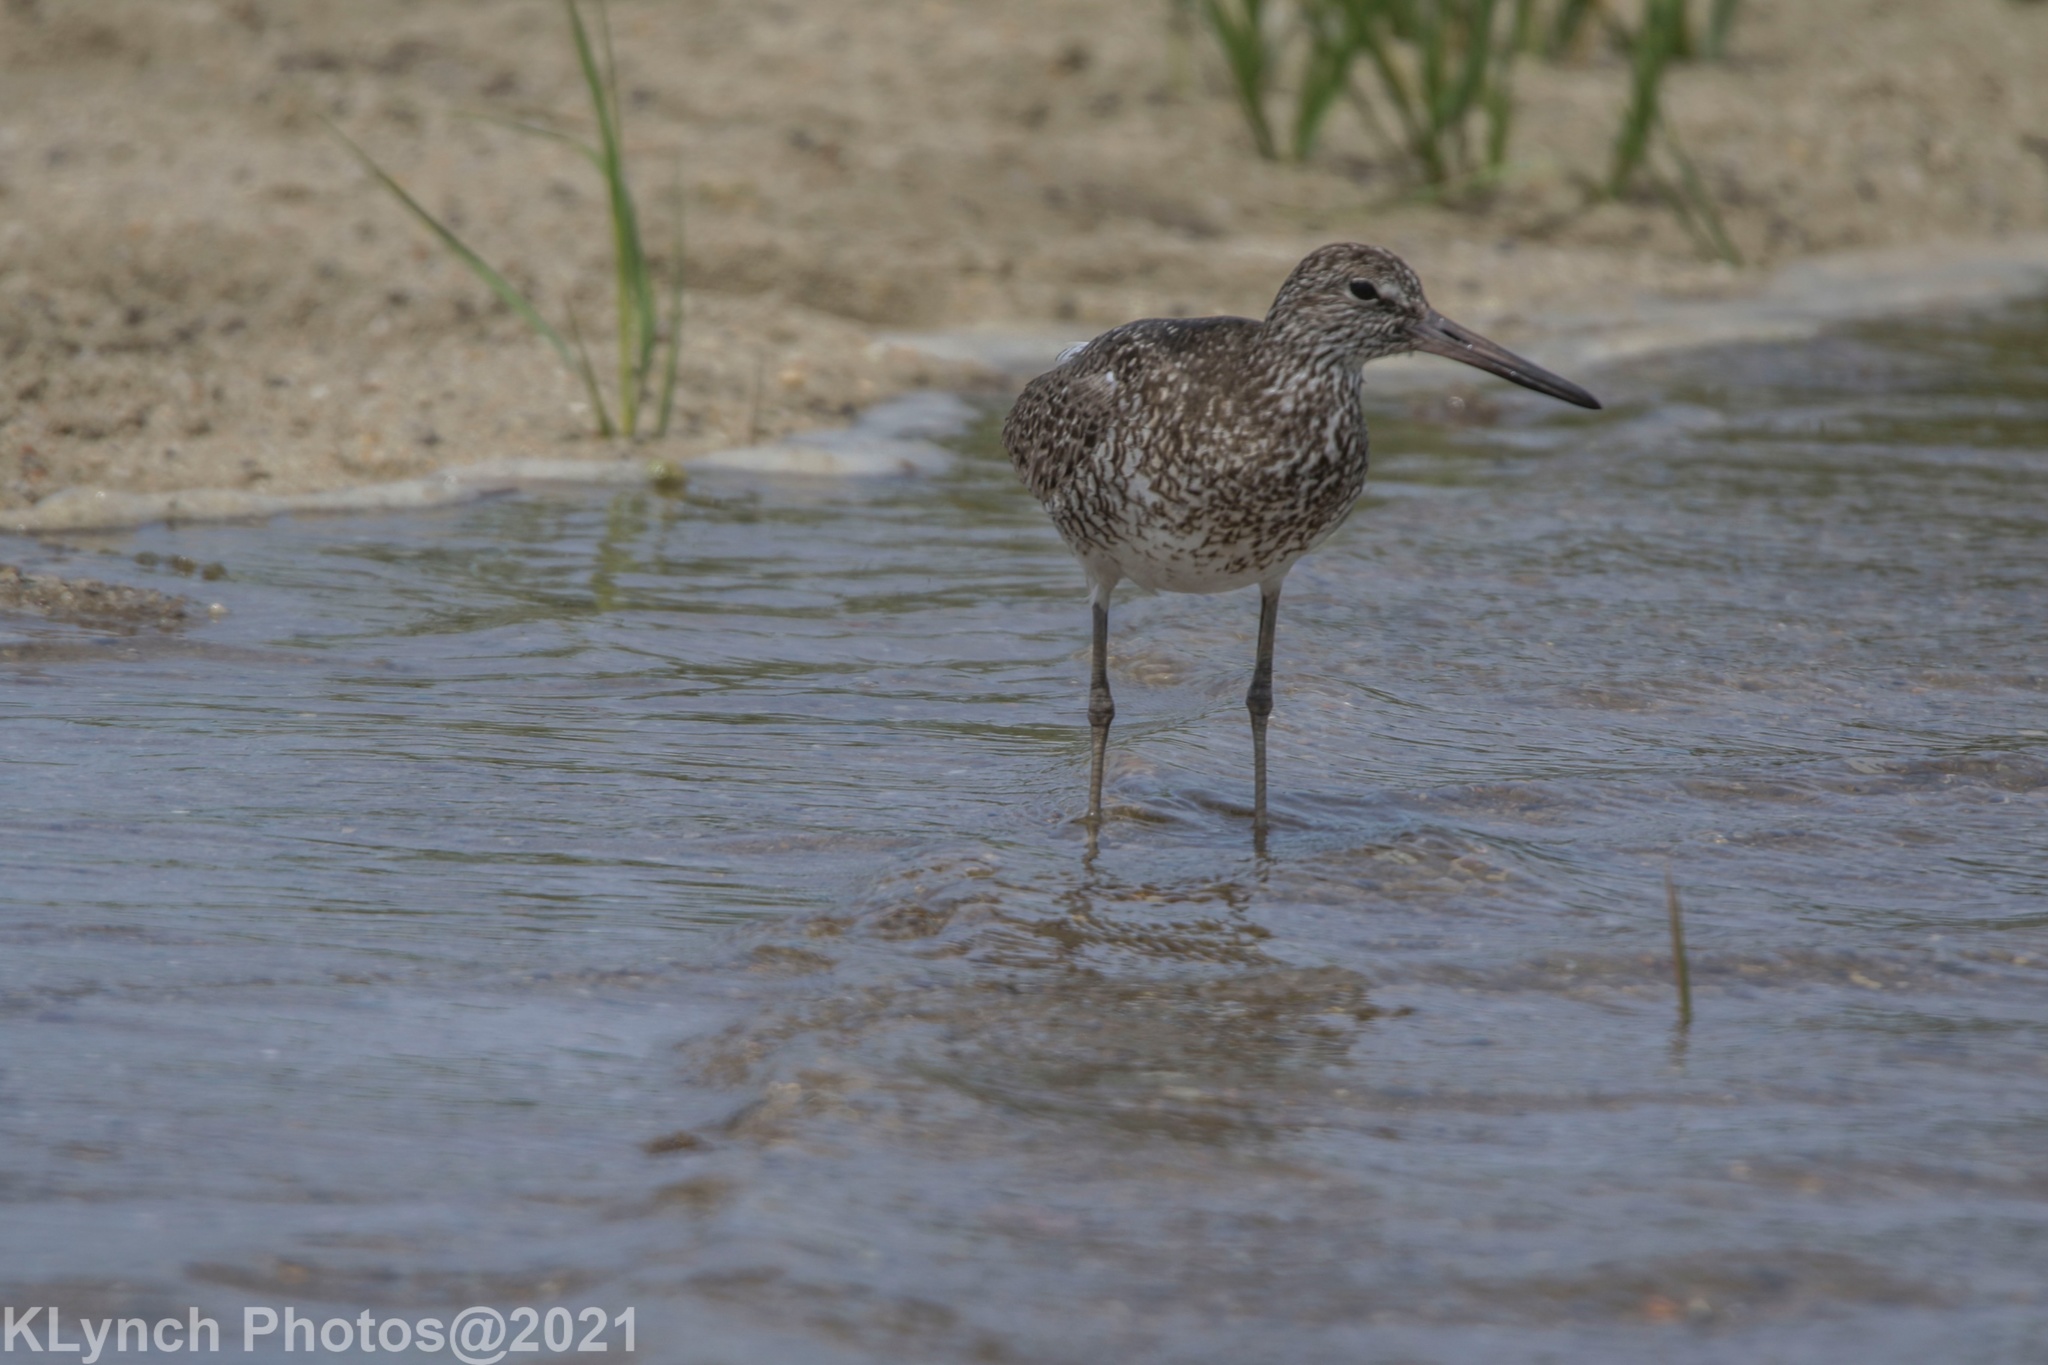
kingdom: Animalia
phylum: Chordata
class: Aves
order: Charadriiformes
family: Scolopacidae
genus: Tringa
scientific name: Tringa semipalmata
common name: Willet
